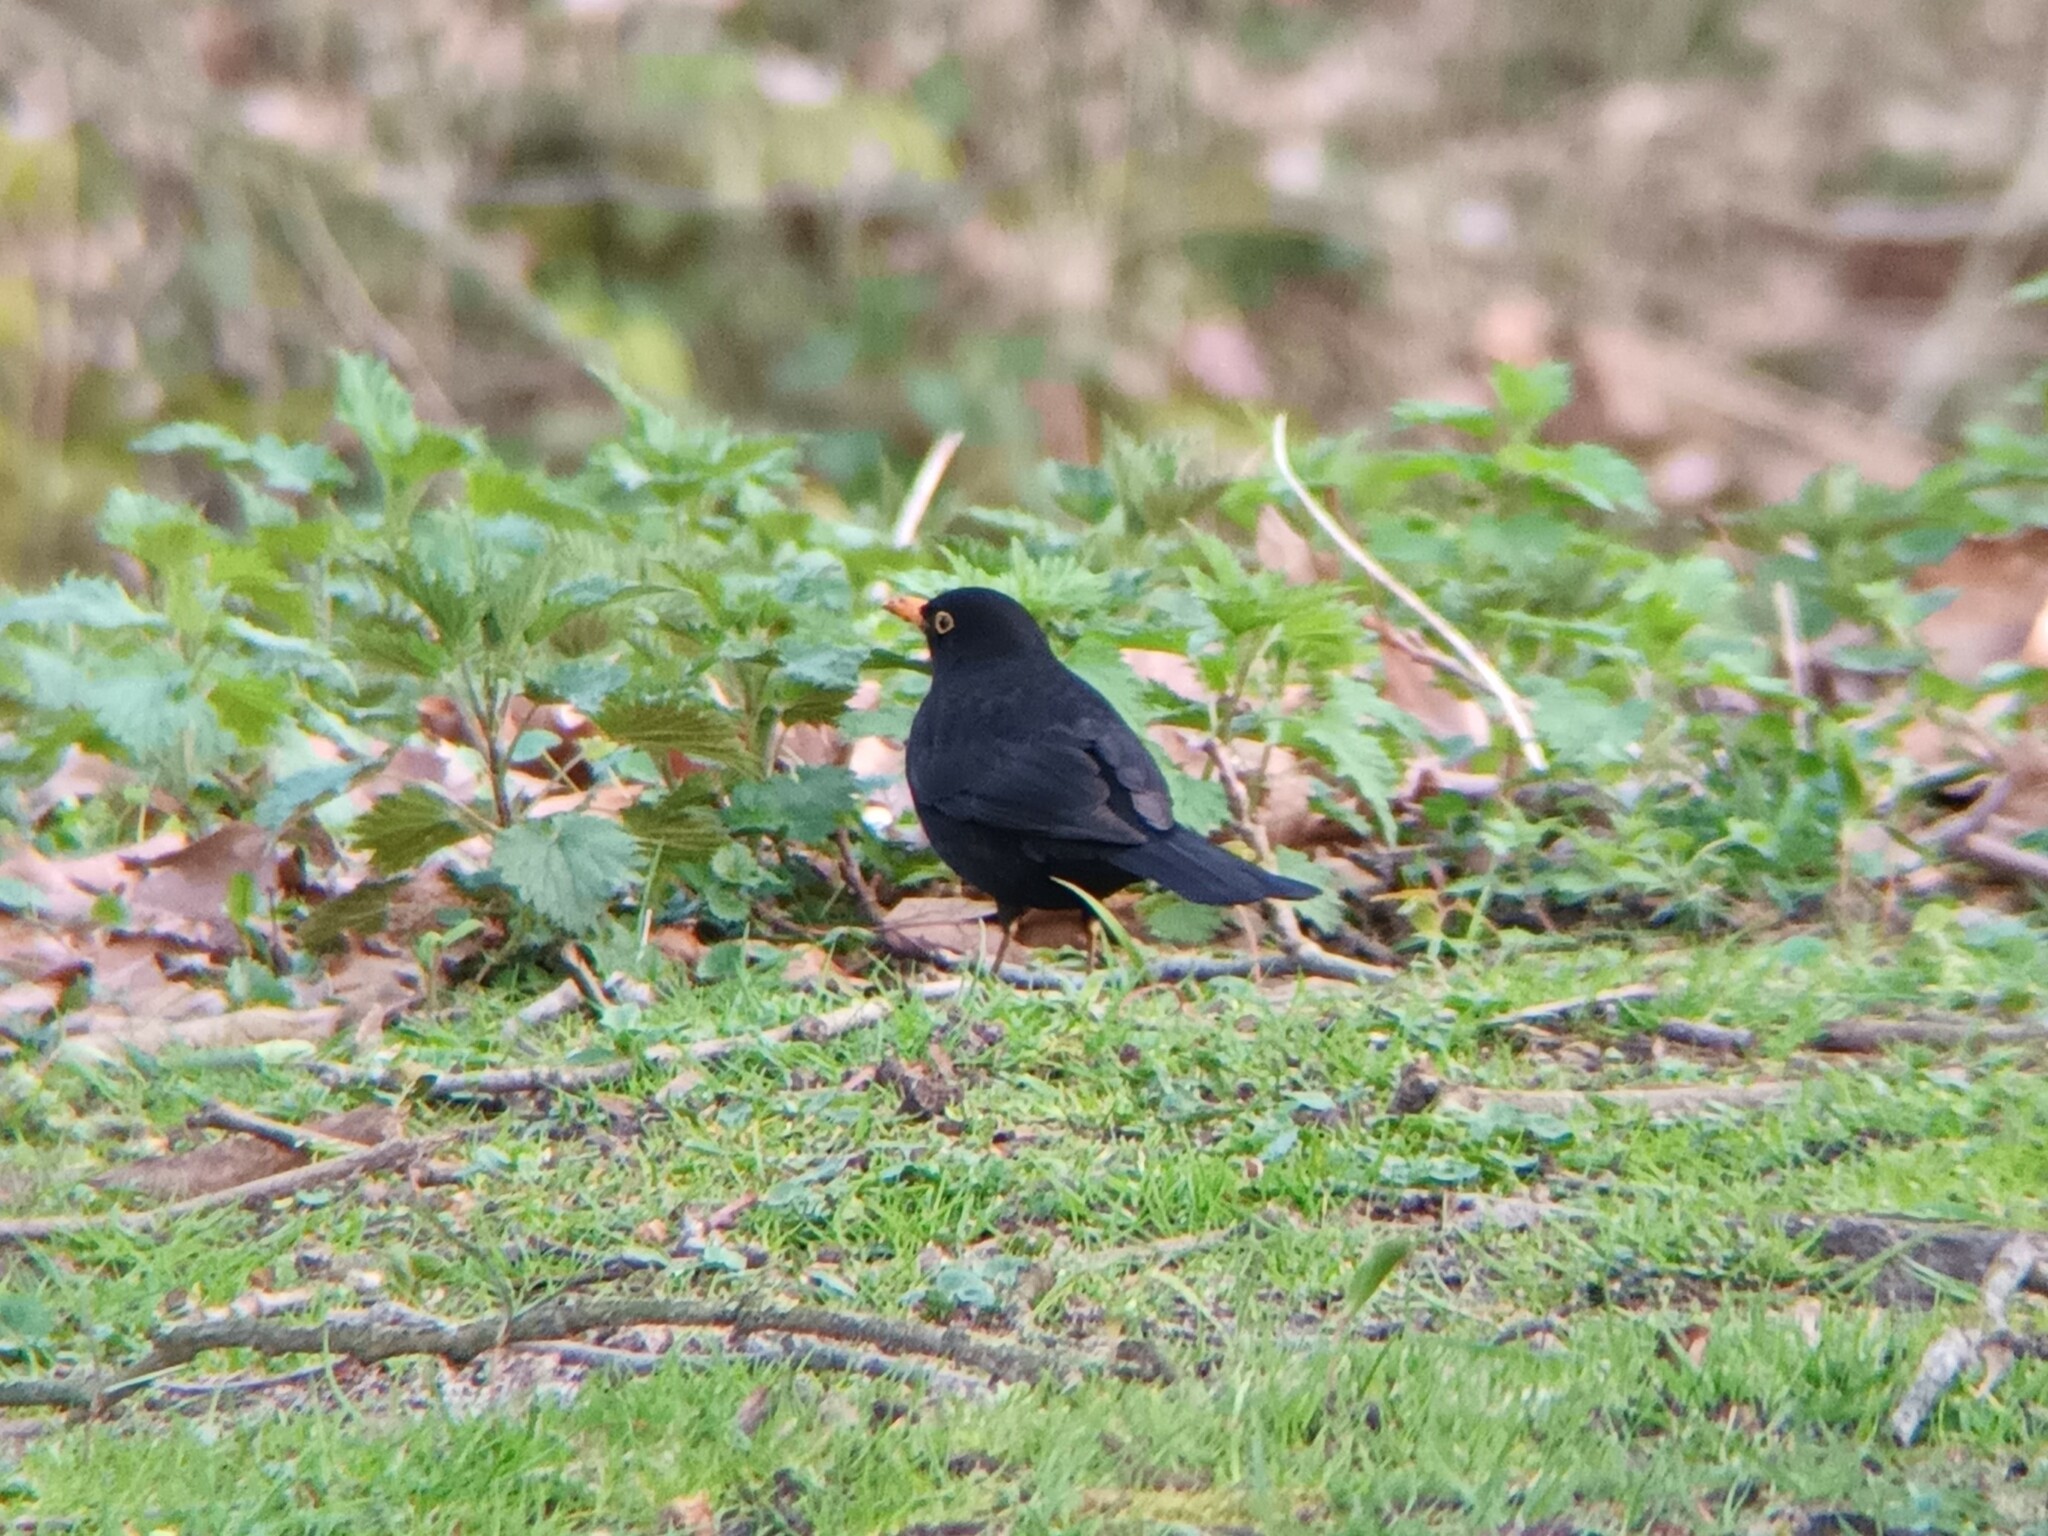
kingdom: Animalia
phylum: Chordata
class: Aves
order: Passeriformes
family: Turdidae
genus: Turdus
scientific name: Turdus merula
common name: Common blackbird
